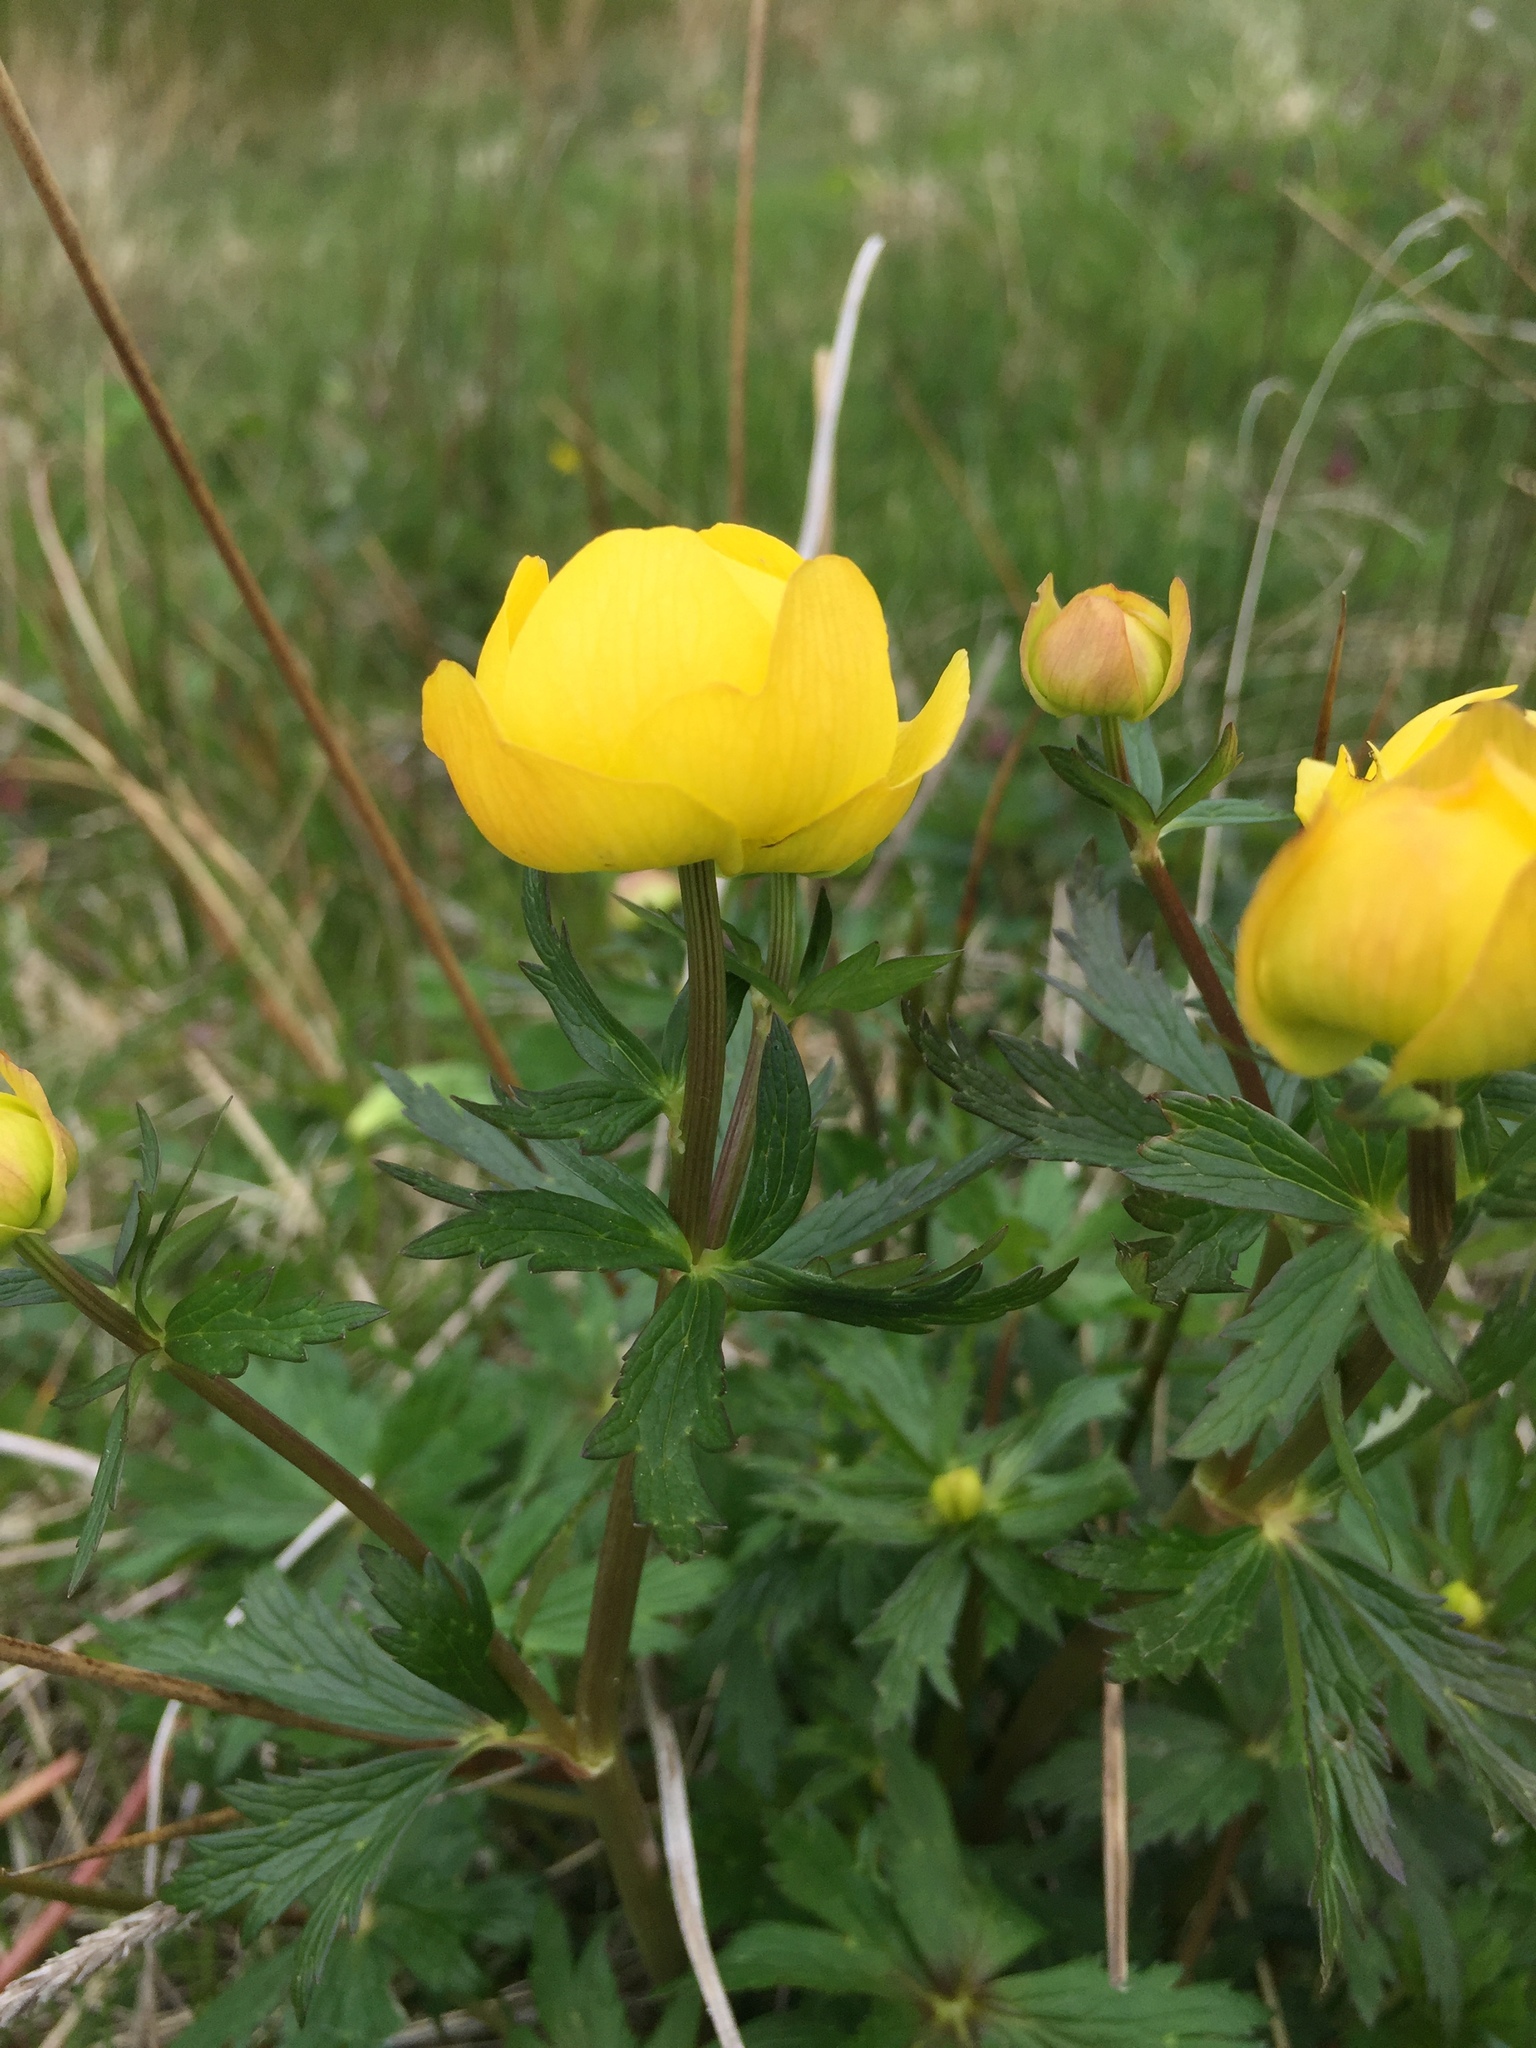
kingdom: Plantae
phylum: Tracheophyta
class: Magnoliopsida
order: Ranunculales
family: Ranunculaceae
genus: Trollius
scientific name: Trollius europaeus
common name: European globeflower
